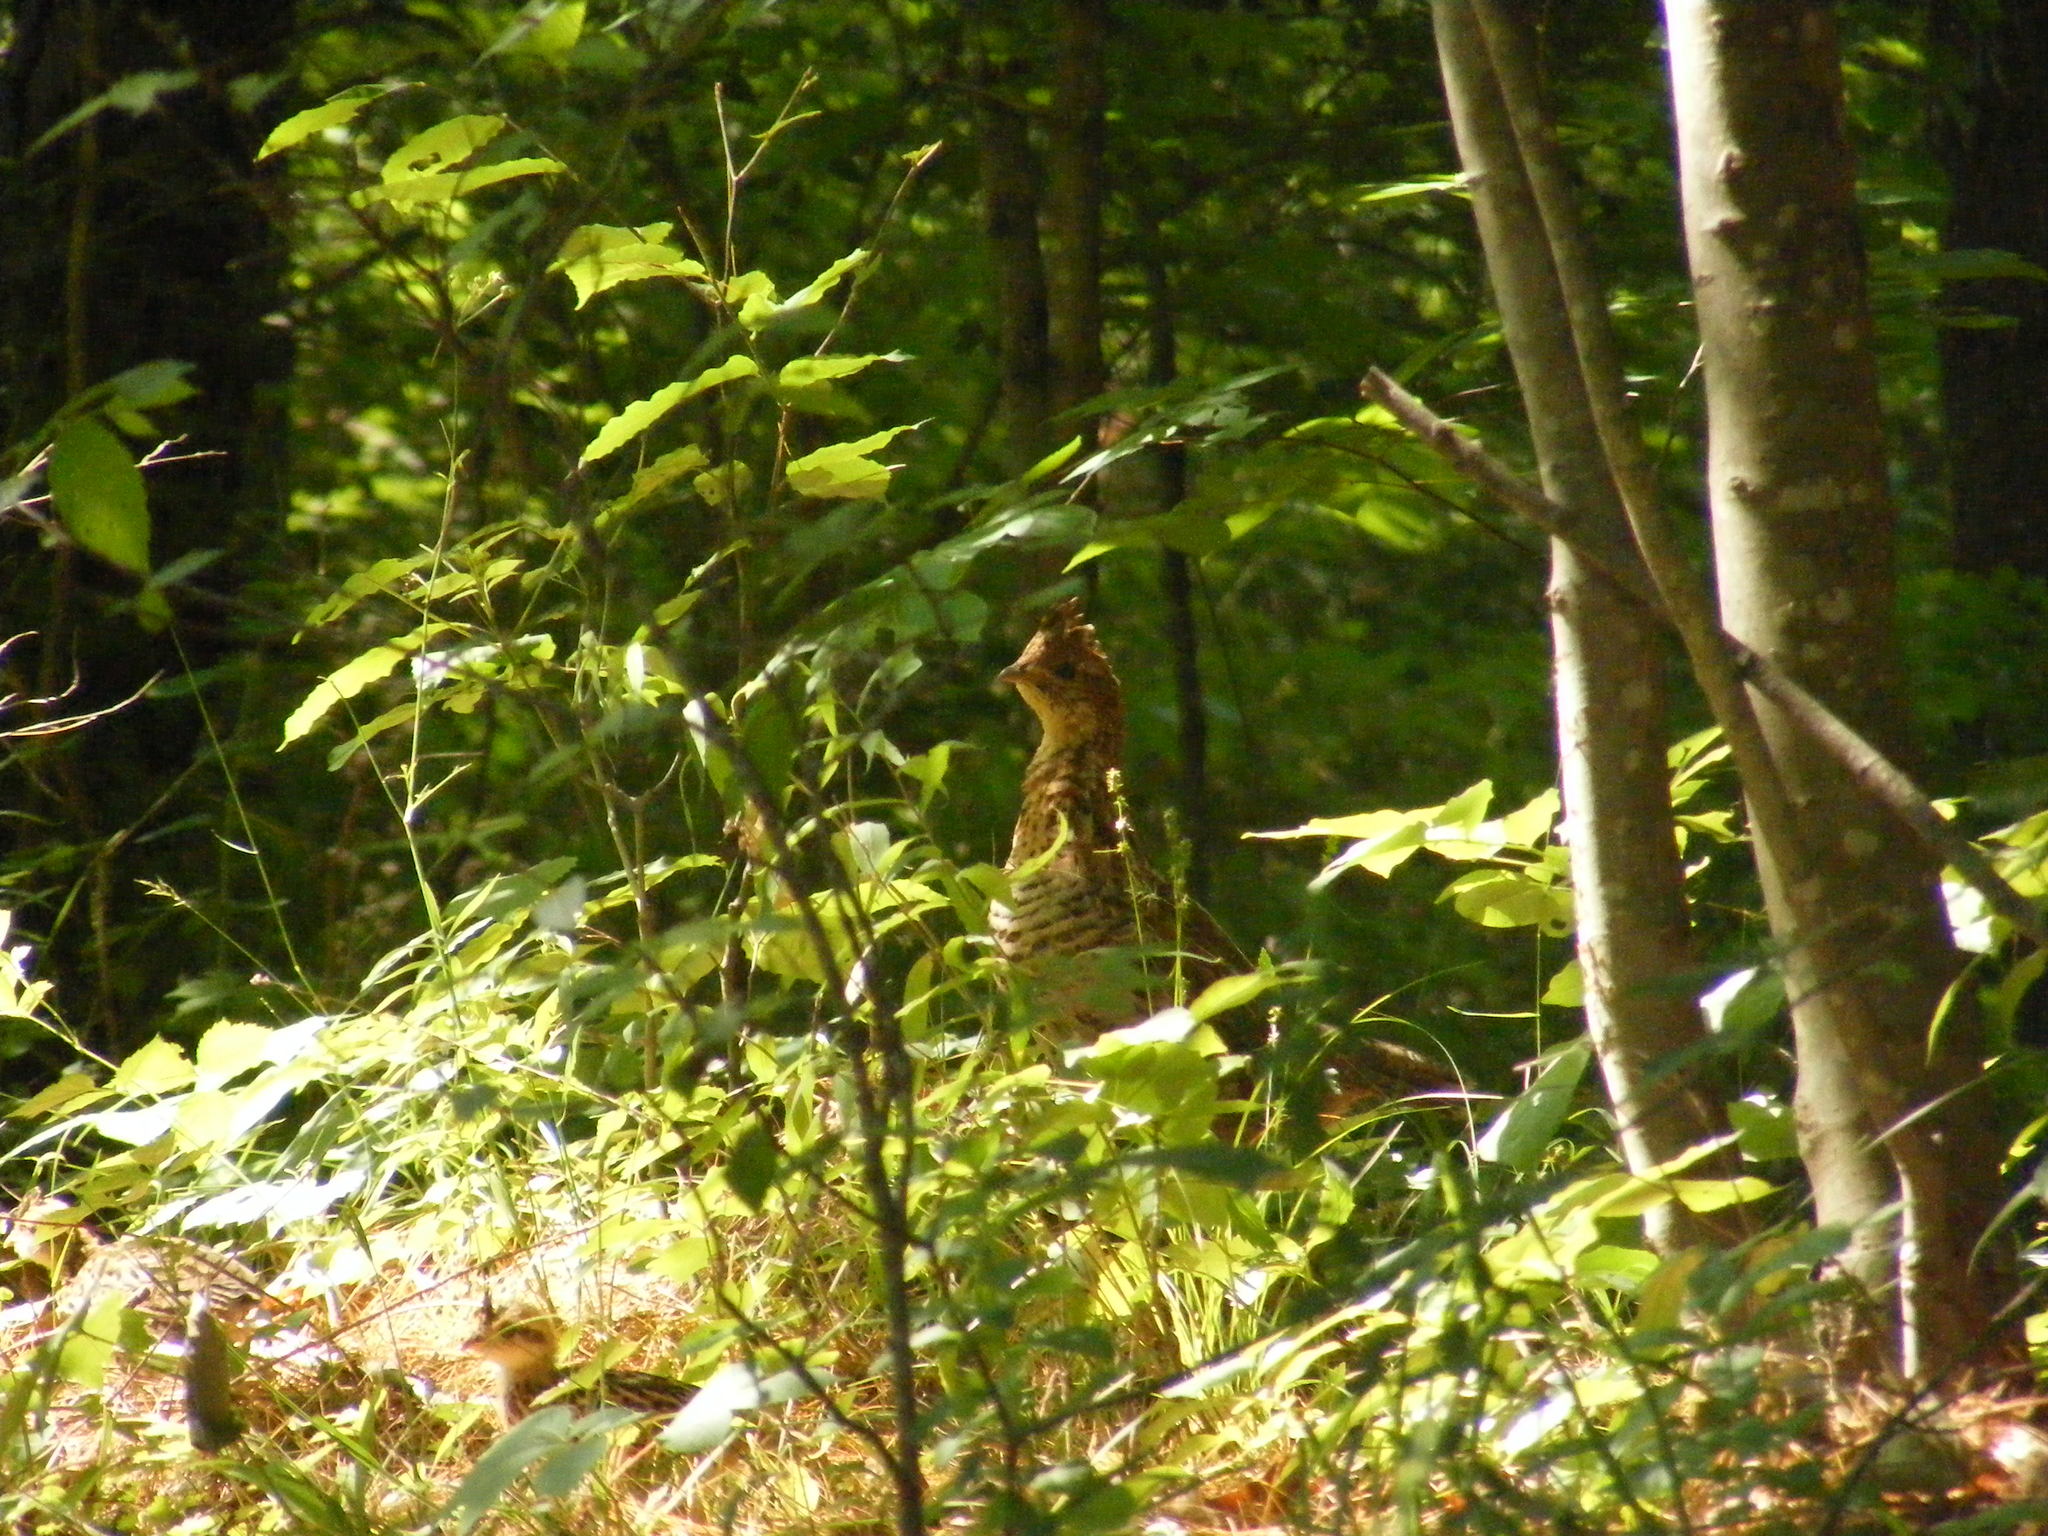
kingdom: Animalia
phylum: Chordata
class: Aves
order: Galliformes
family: Phasianidae
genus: Bonasa
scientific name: Bonasa umbellus
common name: Ruffed grouse
